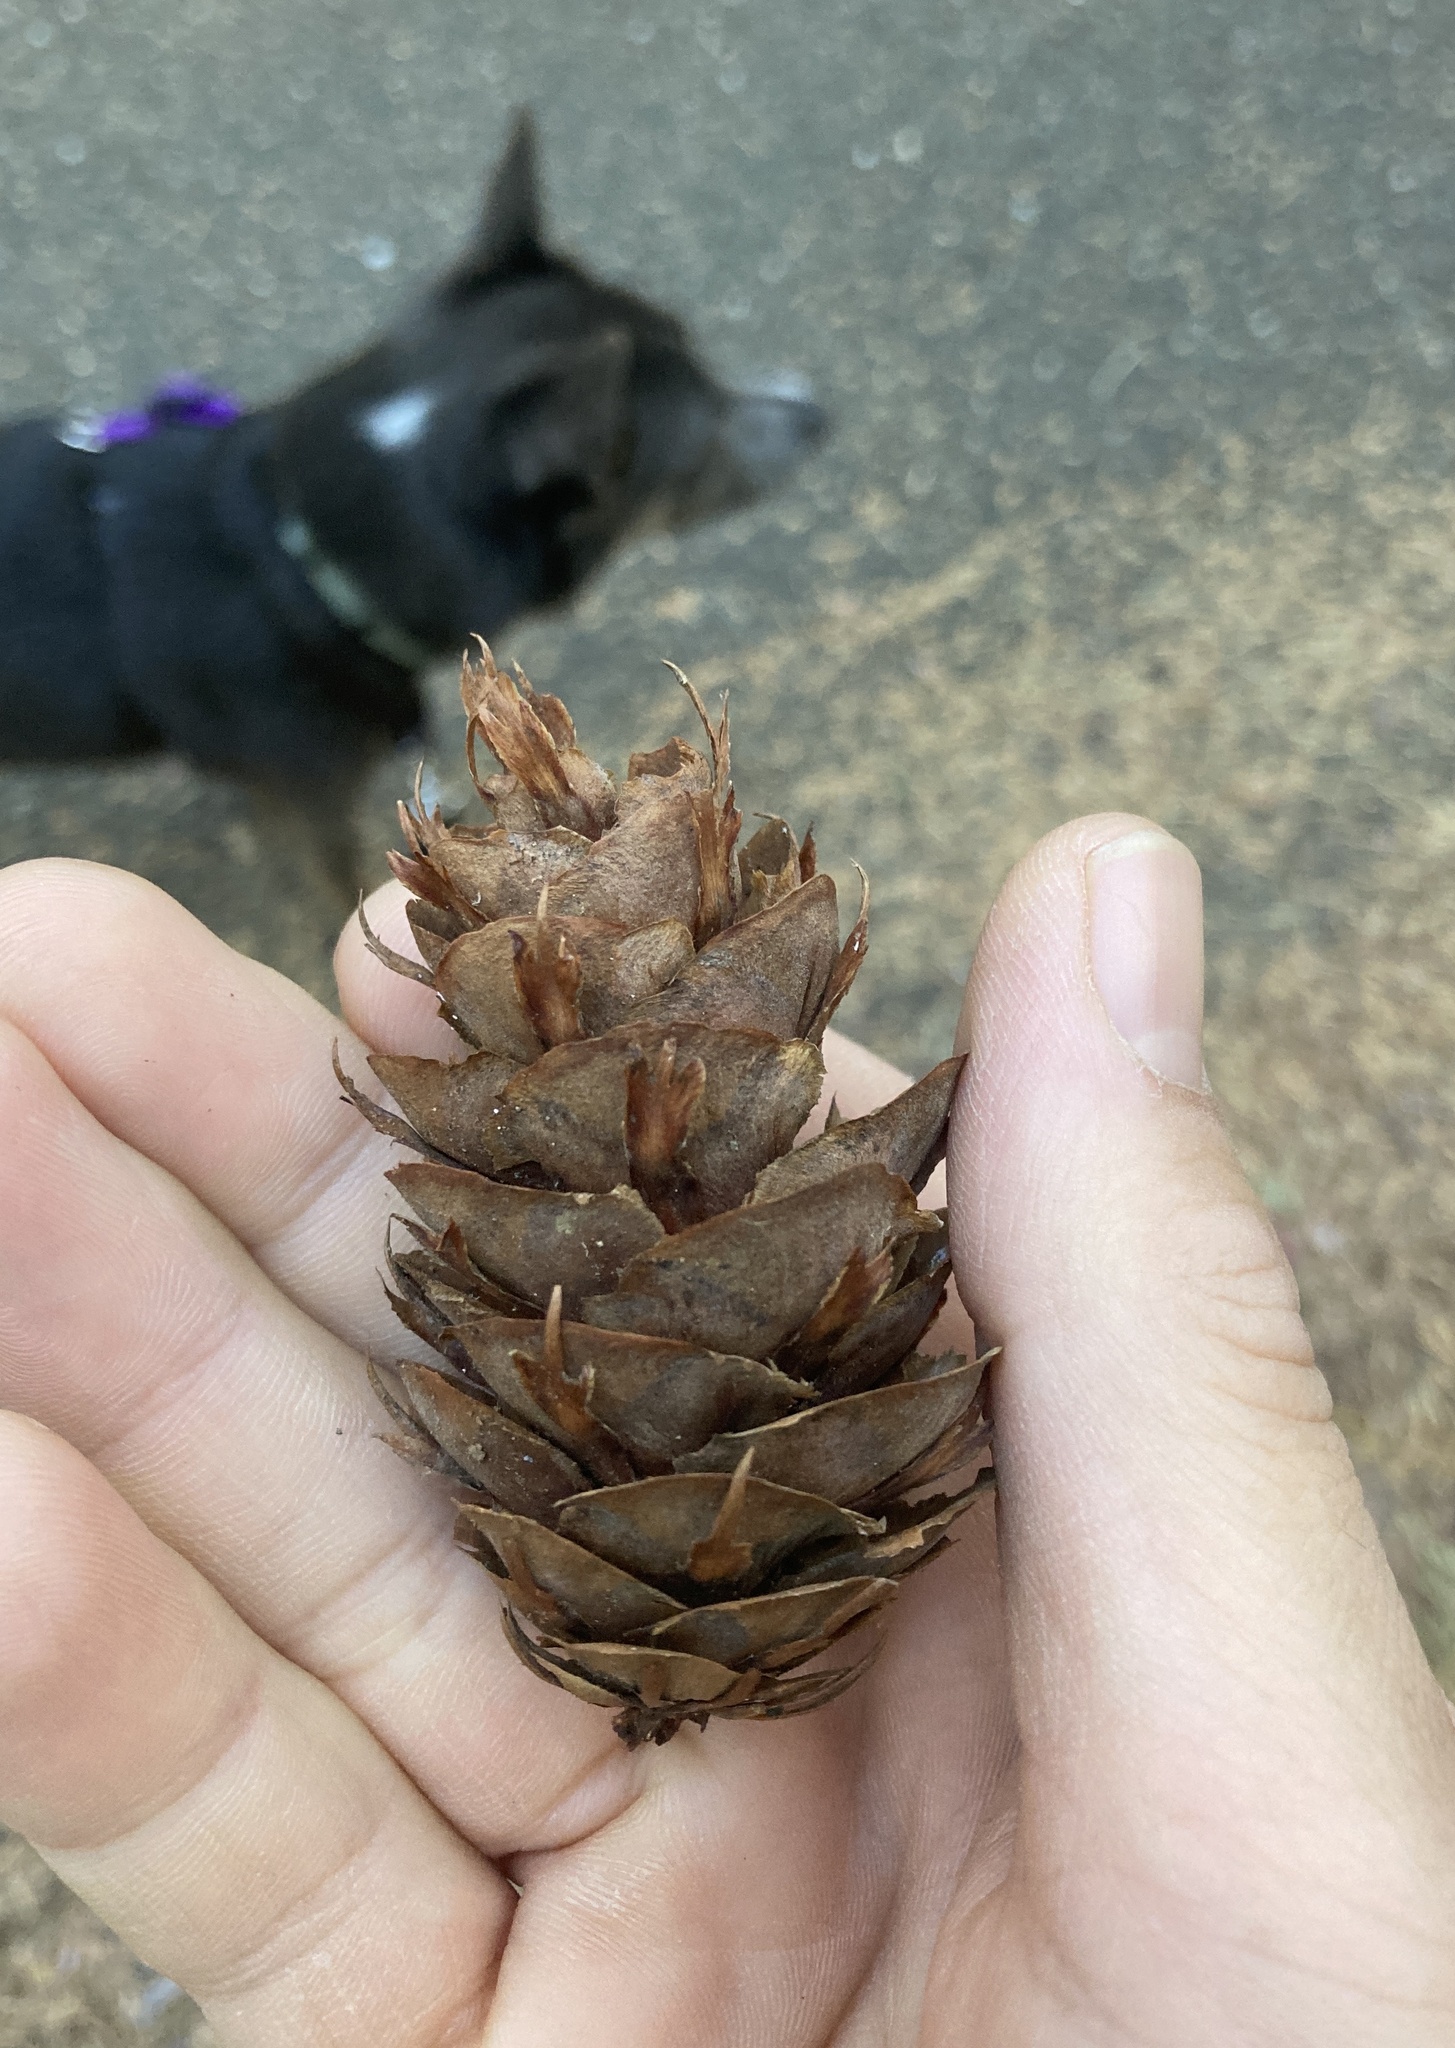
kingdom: Plantae
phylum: Tracheophyta
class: Pinopsida
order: Pinales
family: Pinaceae
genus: Pseudotsuga
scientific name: Pseudotsuga menziesii
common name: Douglas fir
